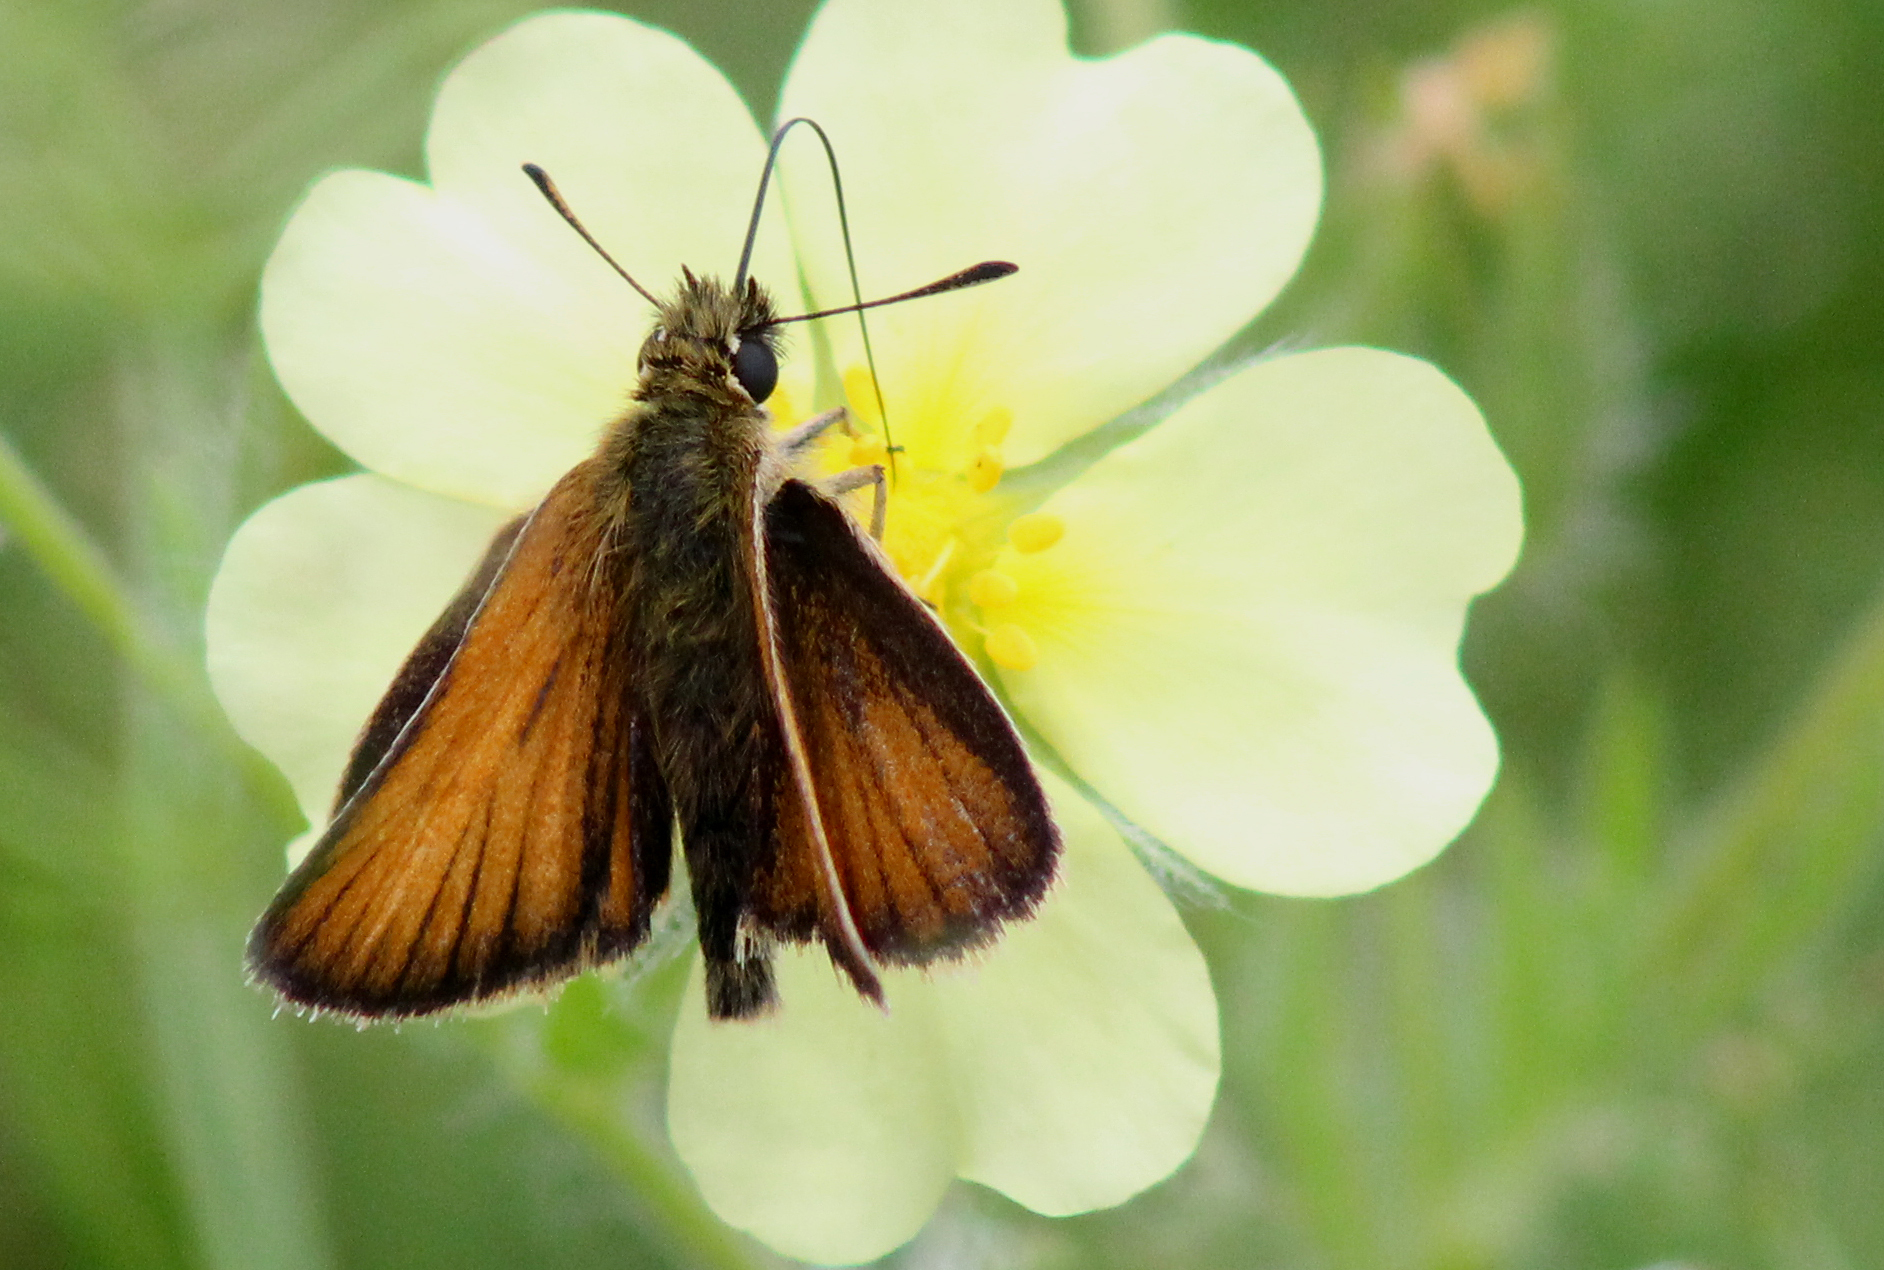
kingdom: Animalia
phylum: Arthropoda
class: Insecta
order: Lepidoptera
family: Hesperiidae
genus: Thymelicus
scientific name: Thymelicus lineola
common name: Essex skipper
